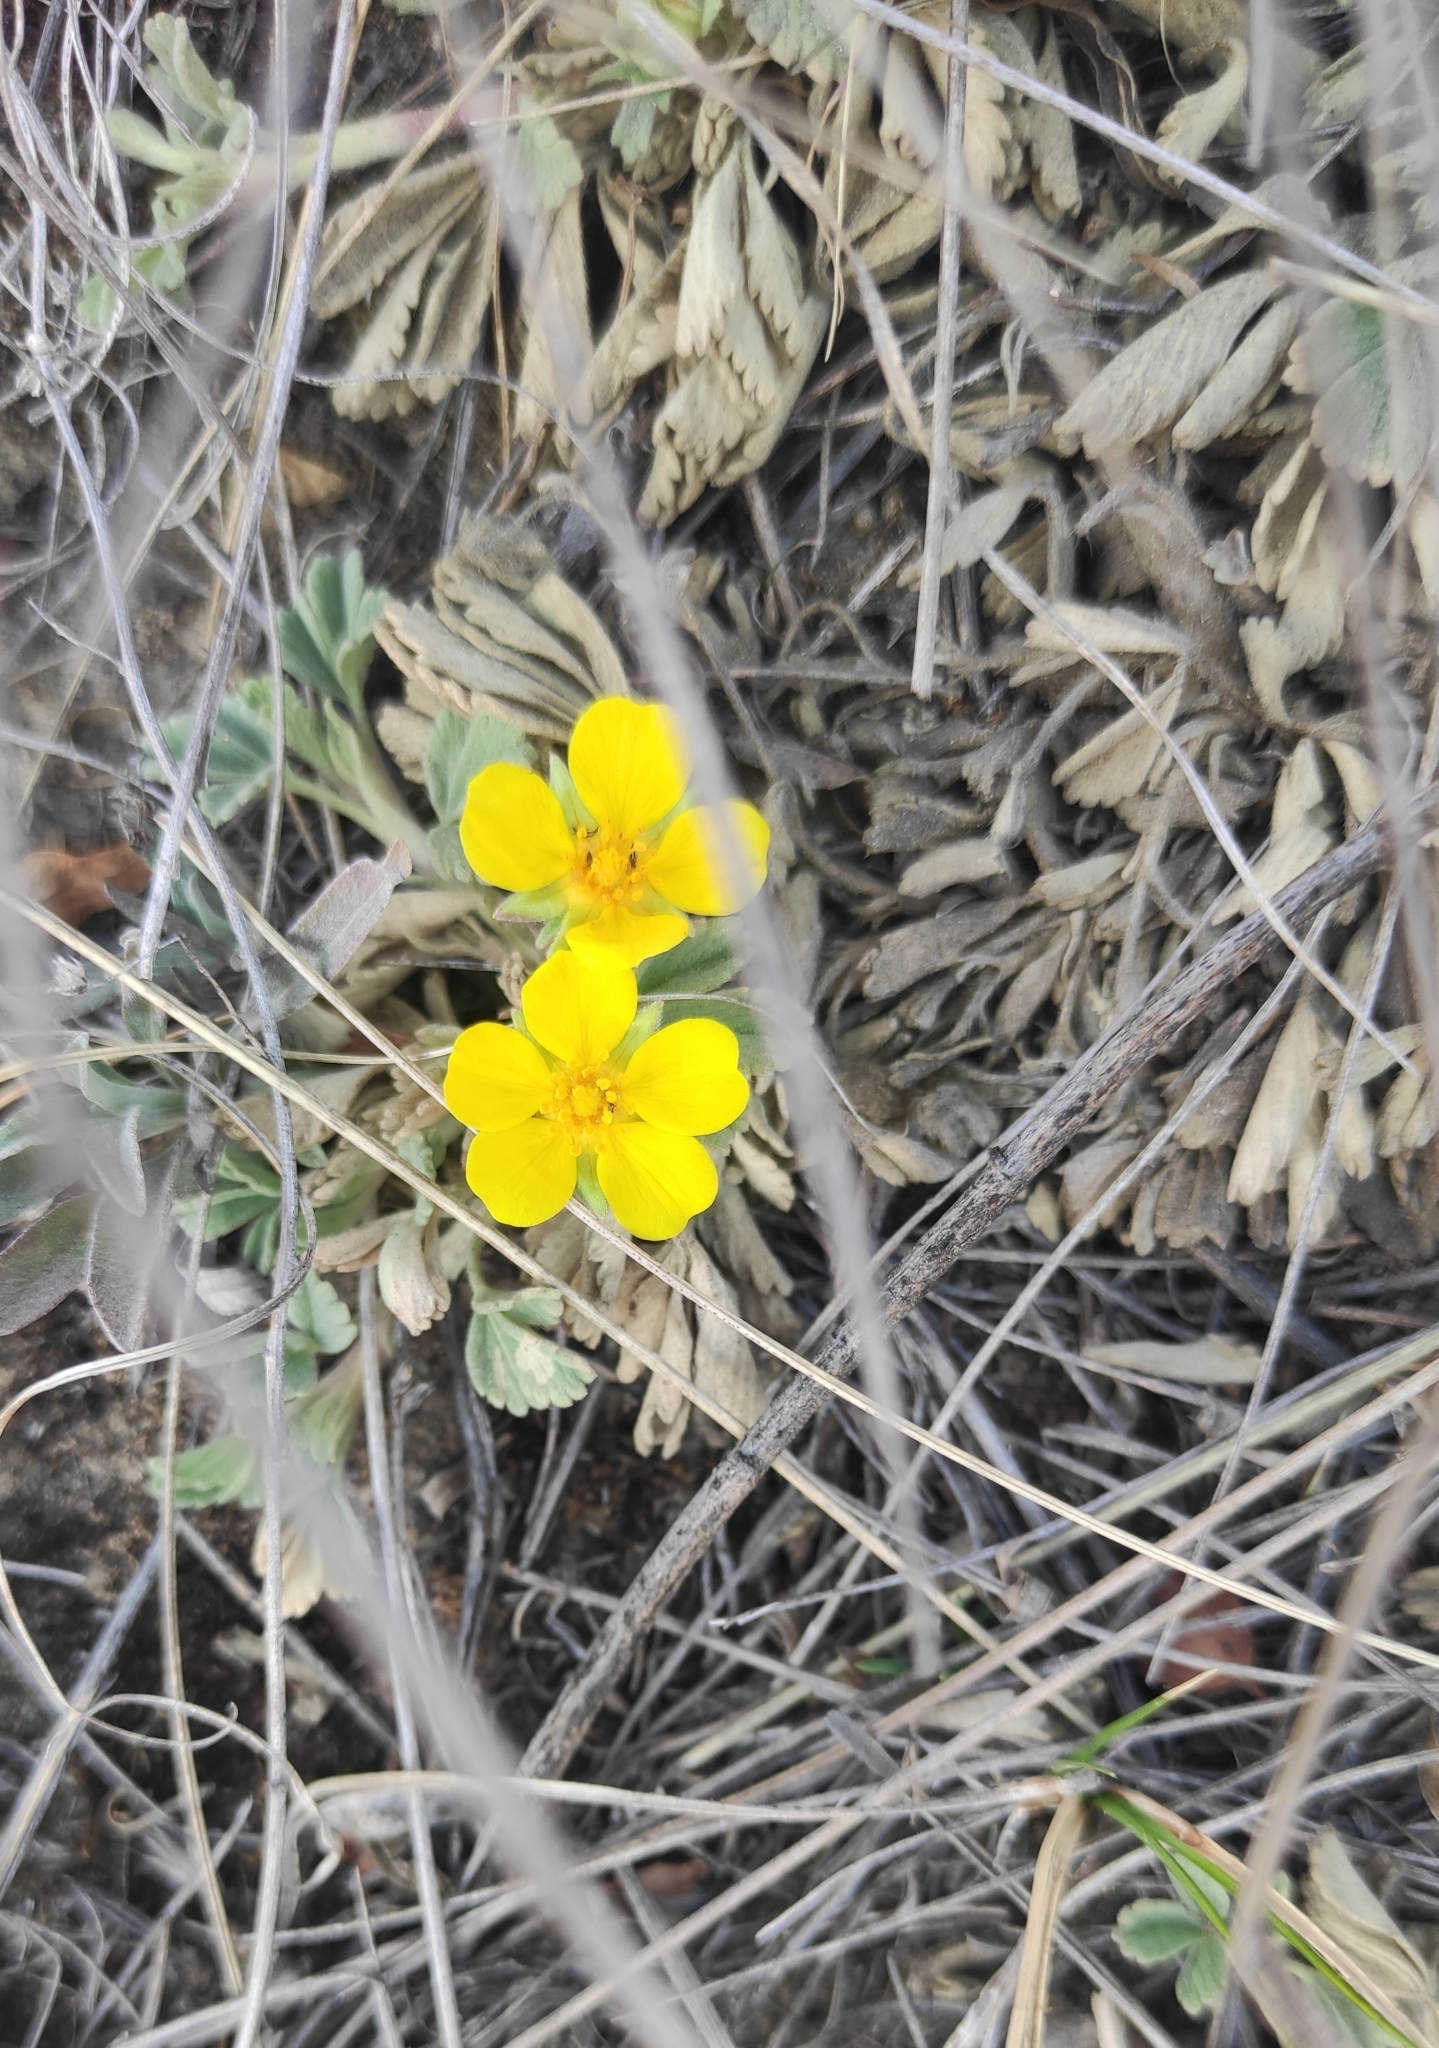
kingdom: Plantae
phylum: Tracheophyta
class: Magnoliopsida
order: Rosales
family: Rosaceae
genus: Potentilla
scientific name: Potentilla acaulis
